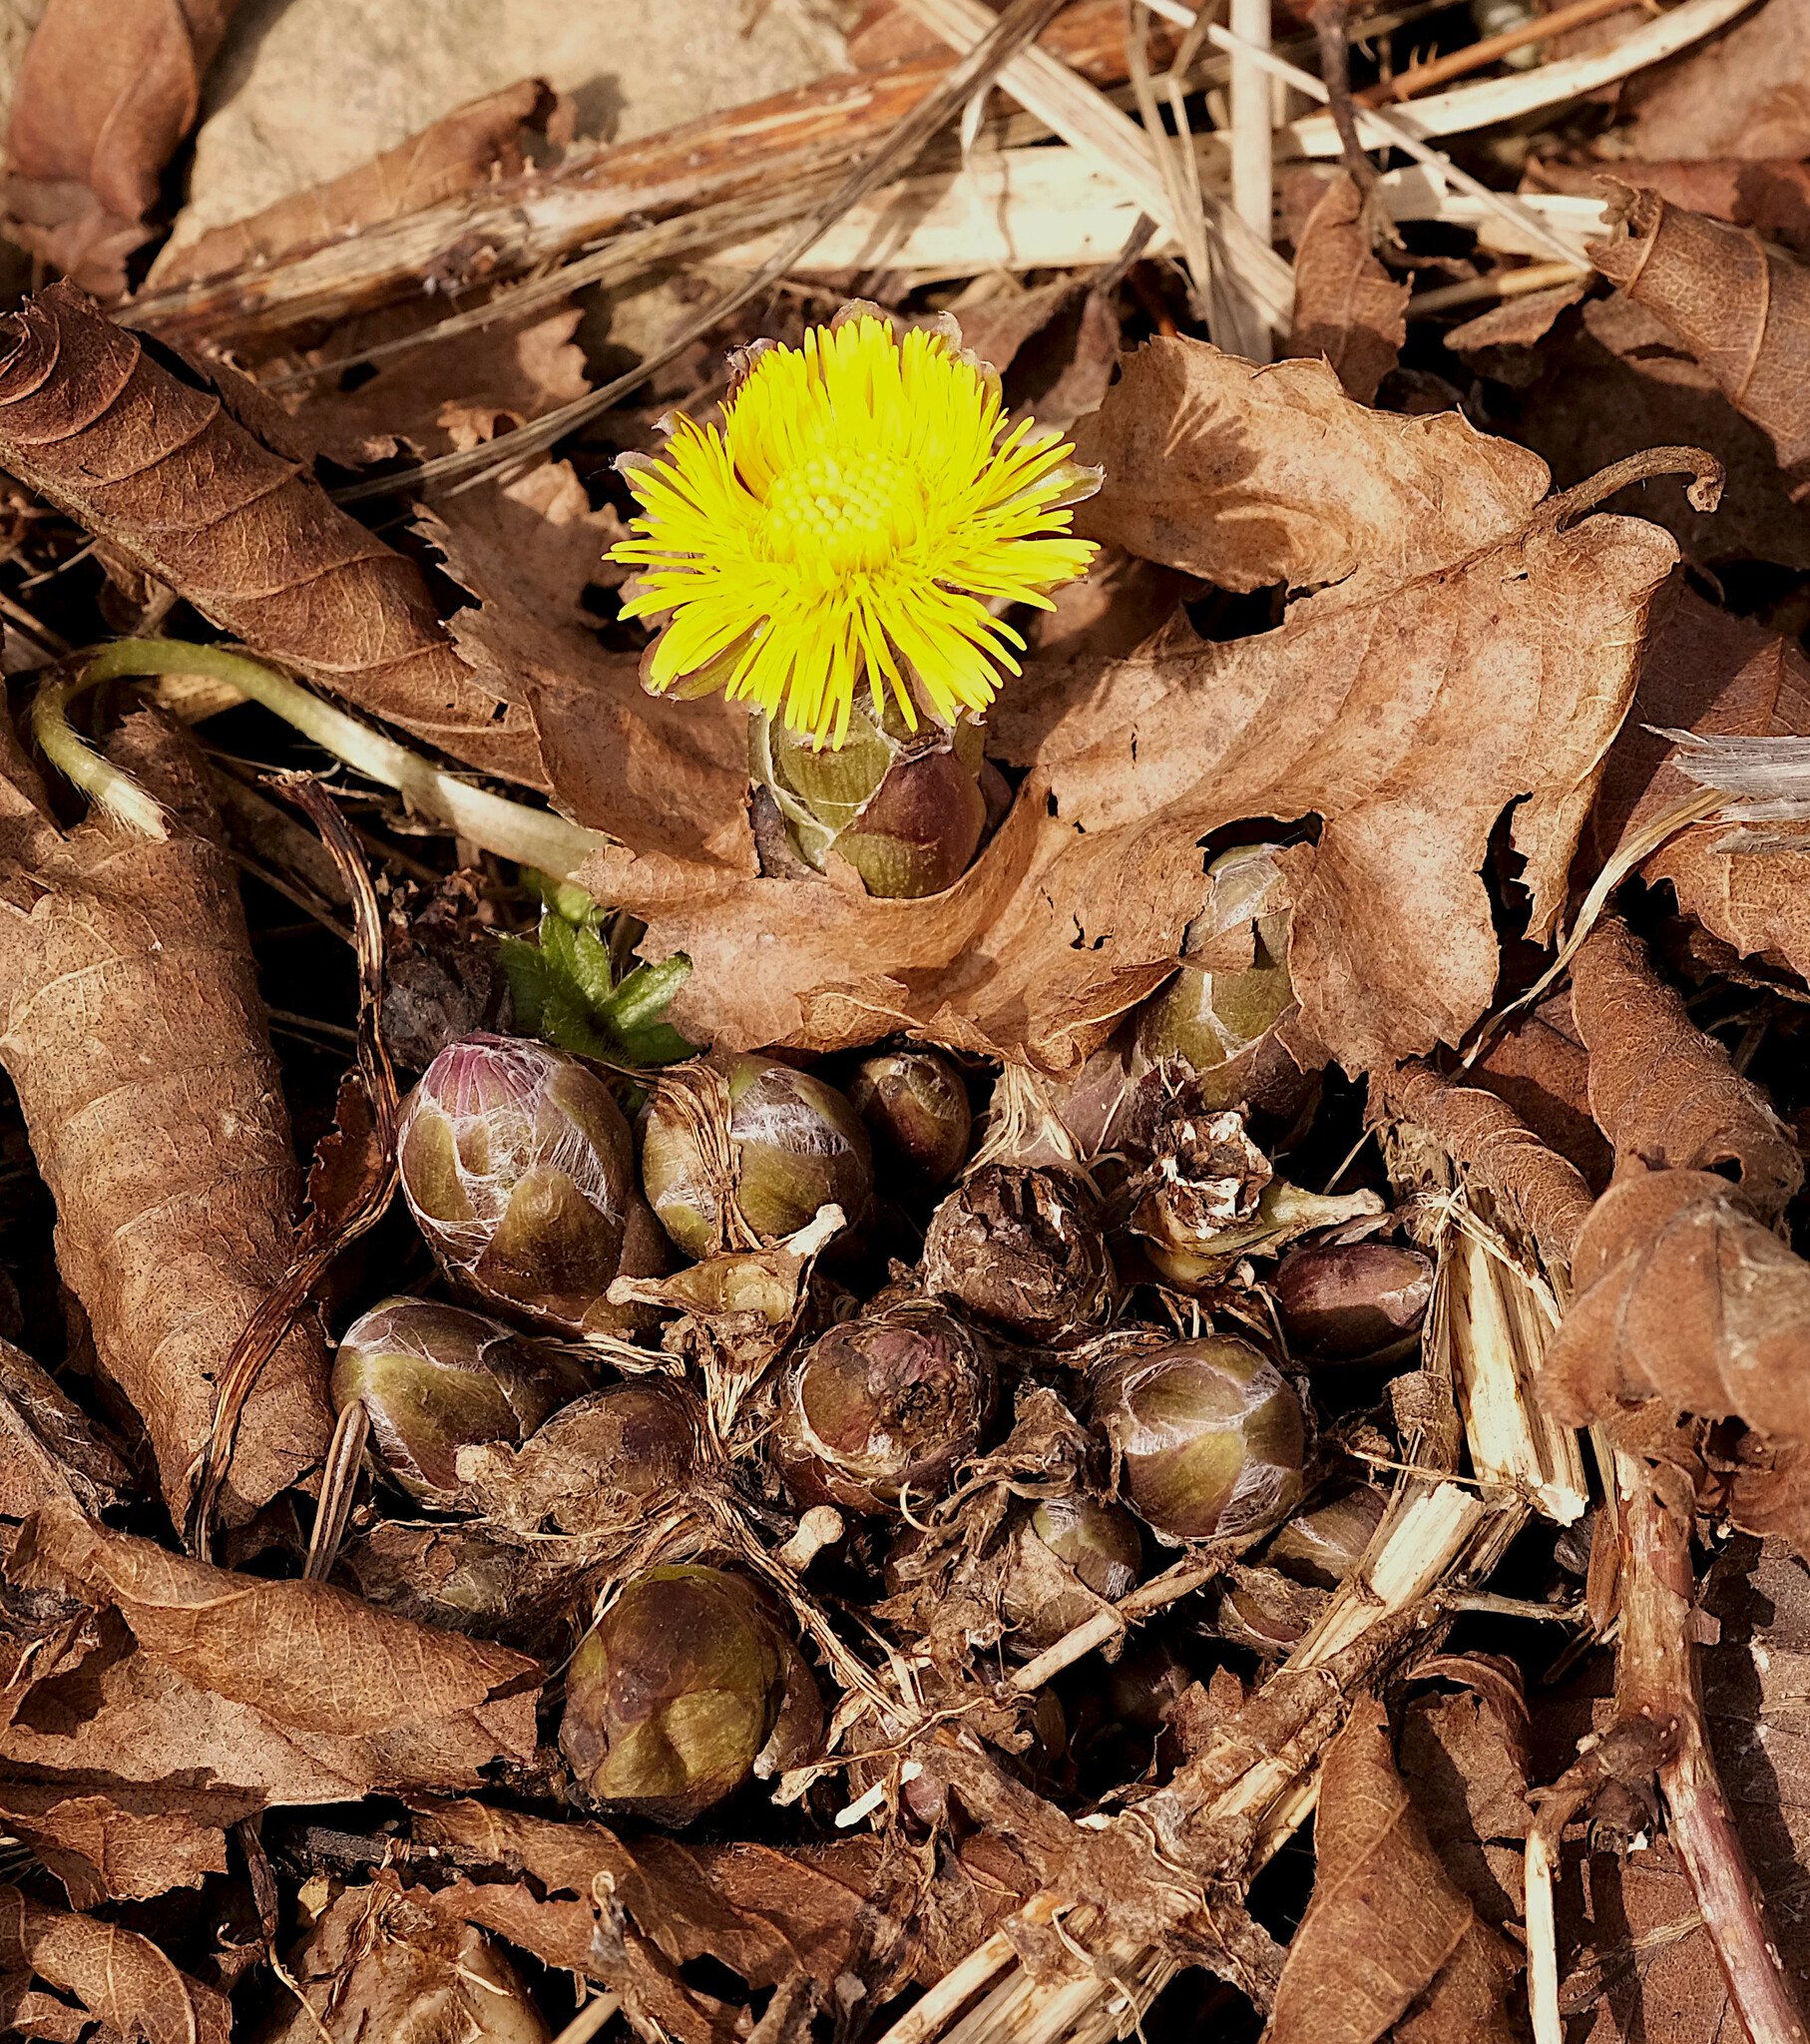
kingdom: Plantae
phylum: Tracheophyta
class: Magnoliopsida
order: Asterales
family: Asteraceae
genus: Tussilago
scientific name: Tussilago farfara
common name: Coltsfoot
